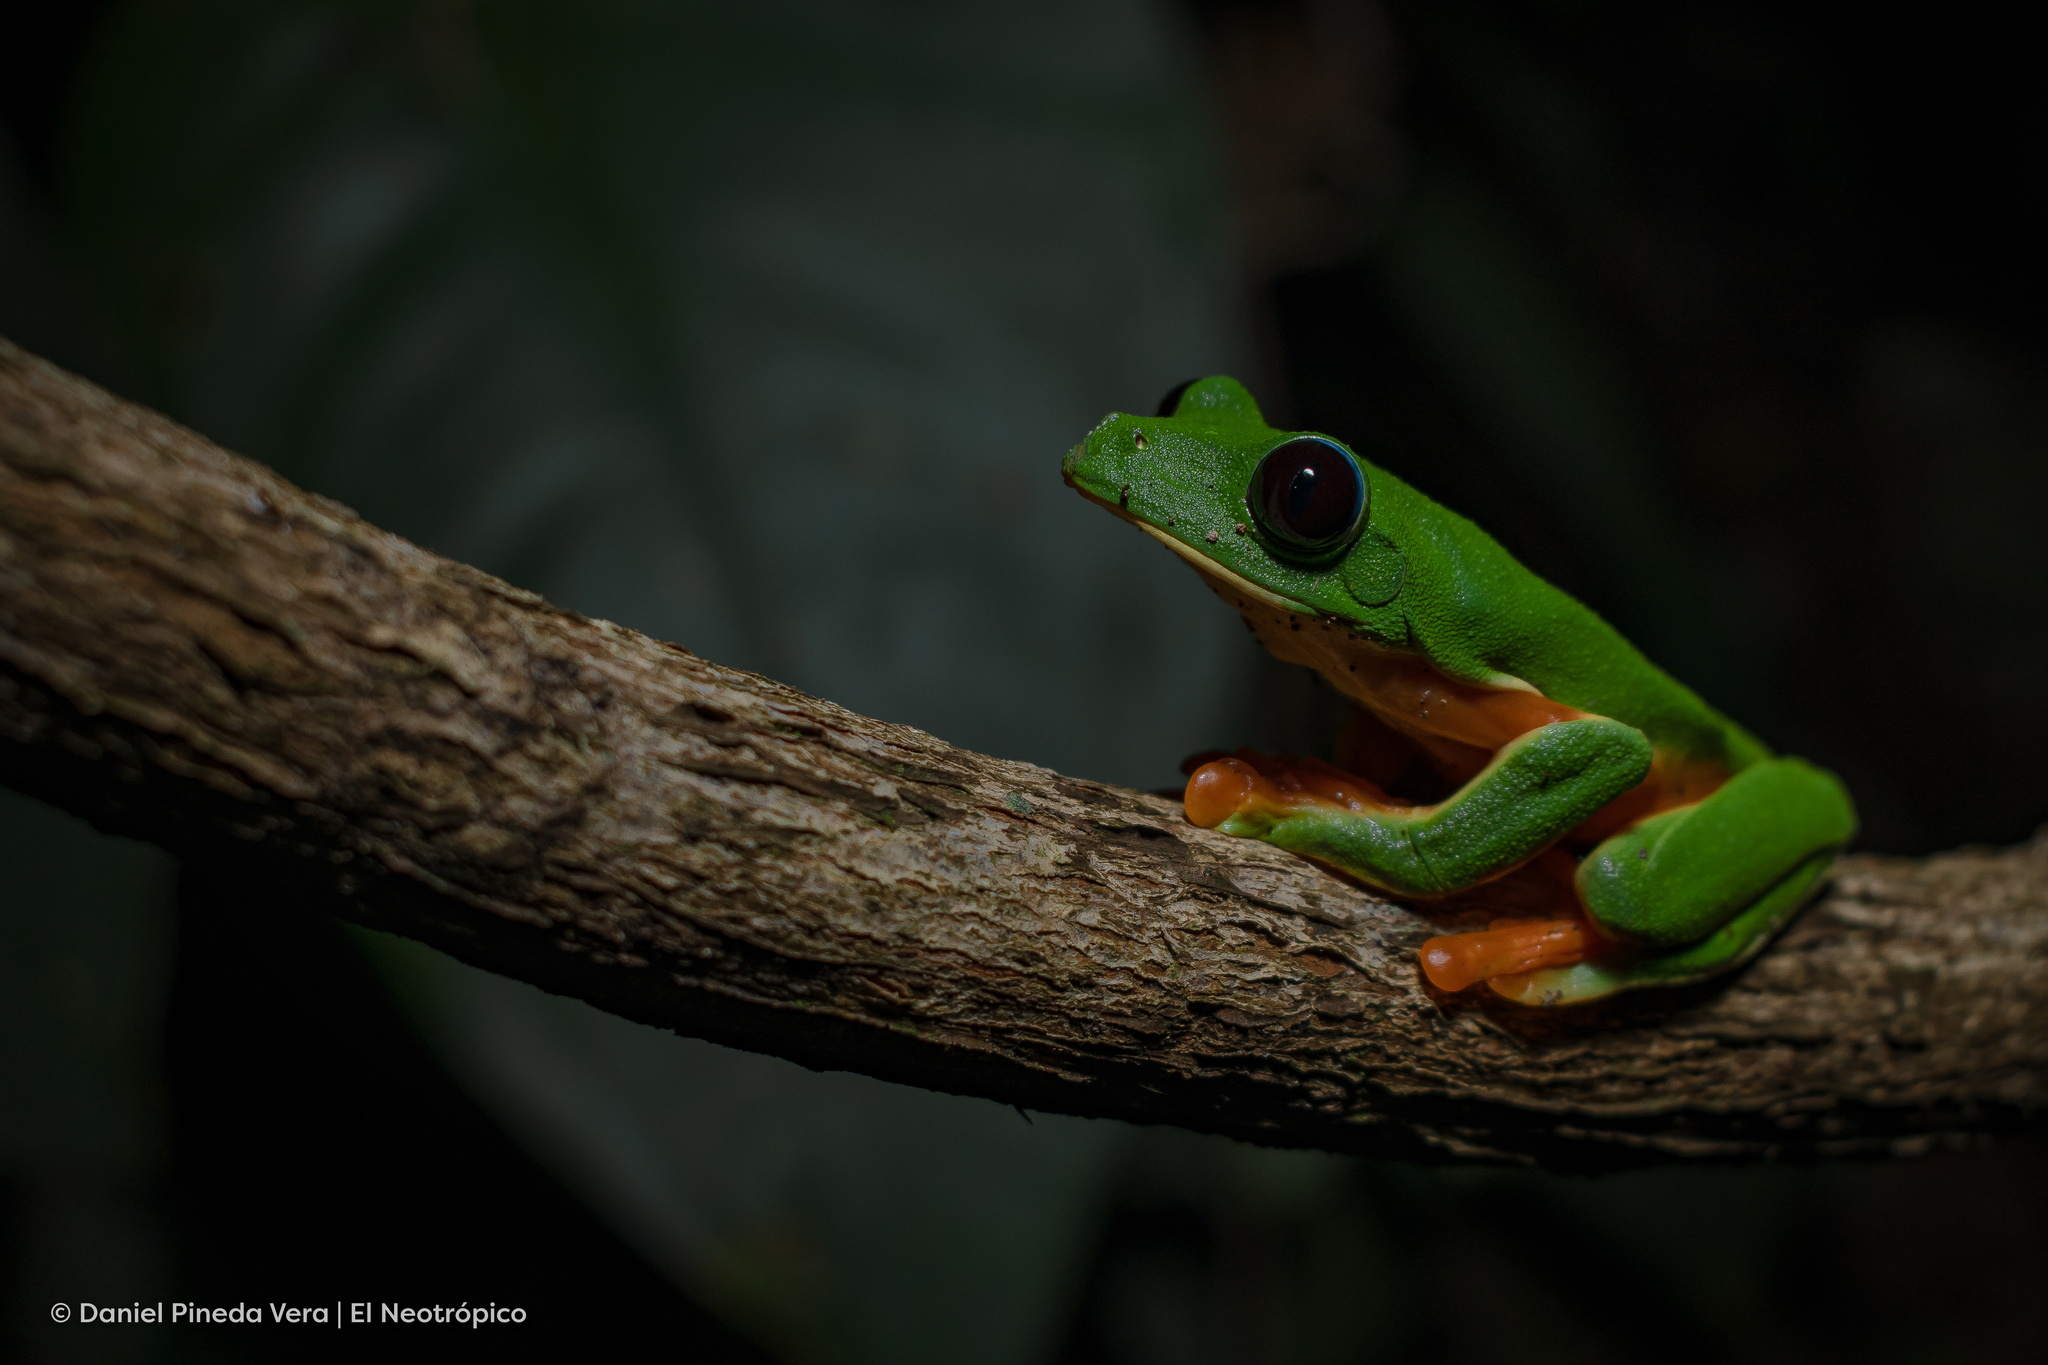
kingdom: Animalia
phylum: Chordata
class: Amphibia
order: Anura
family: Phyllomedusidae
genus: Agalychnis
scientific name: Agalychnis moreletii
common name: Black-eyed leaf frog
